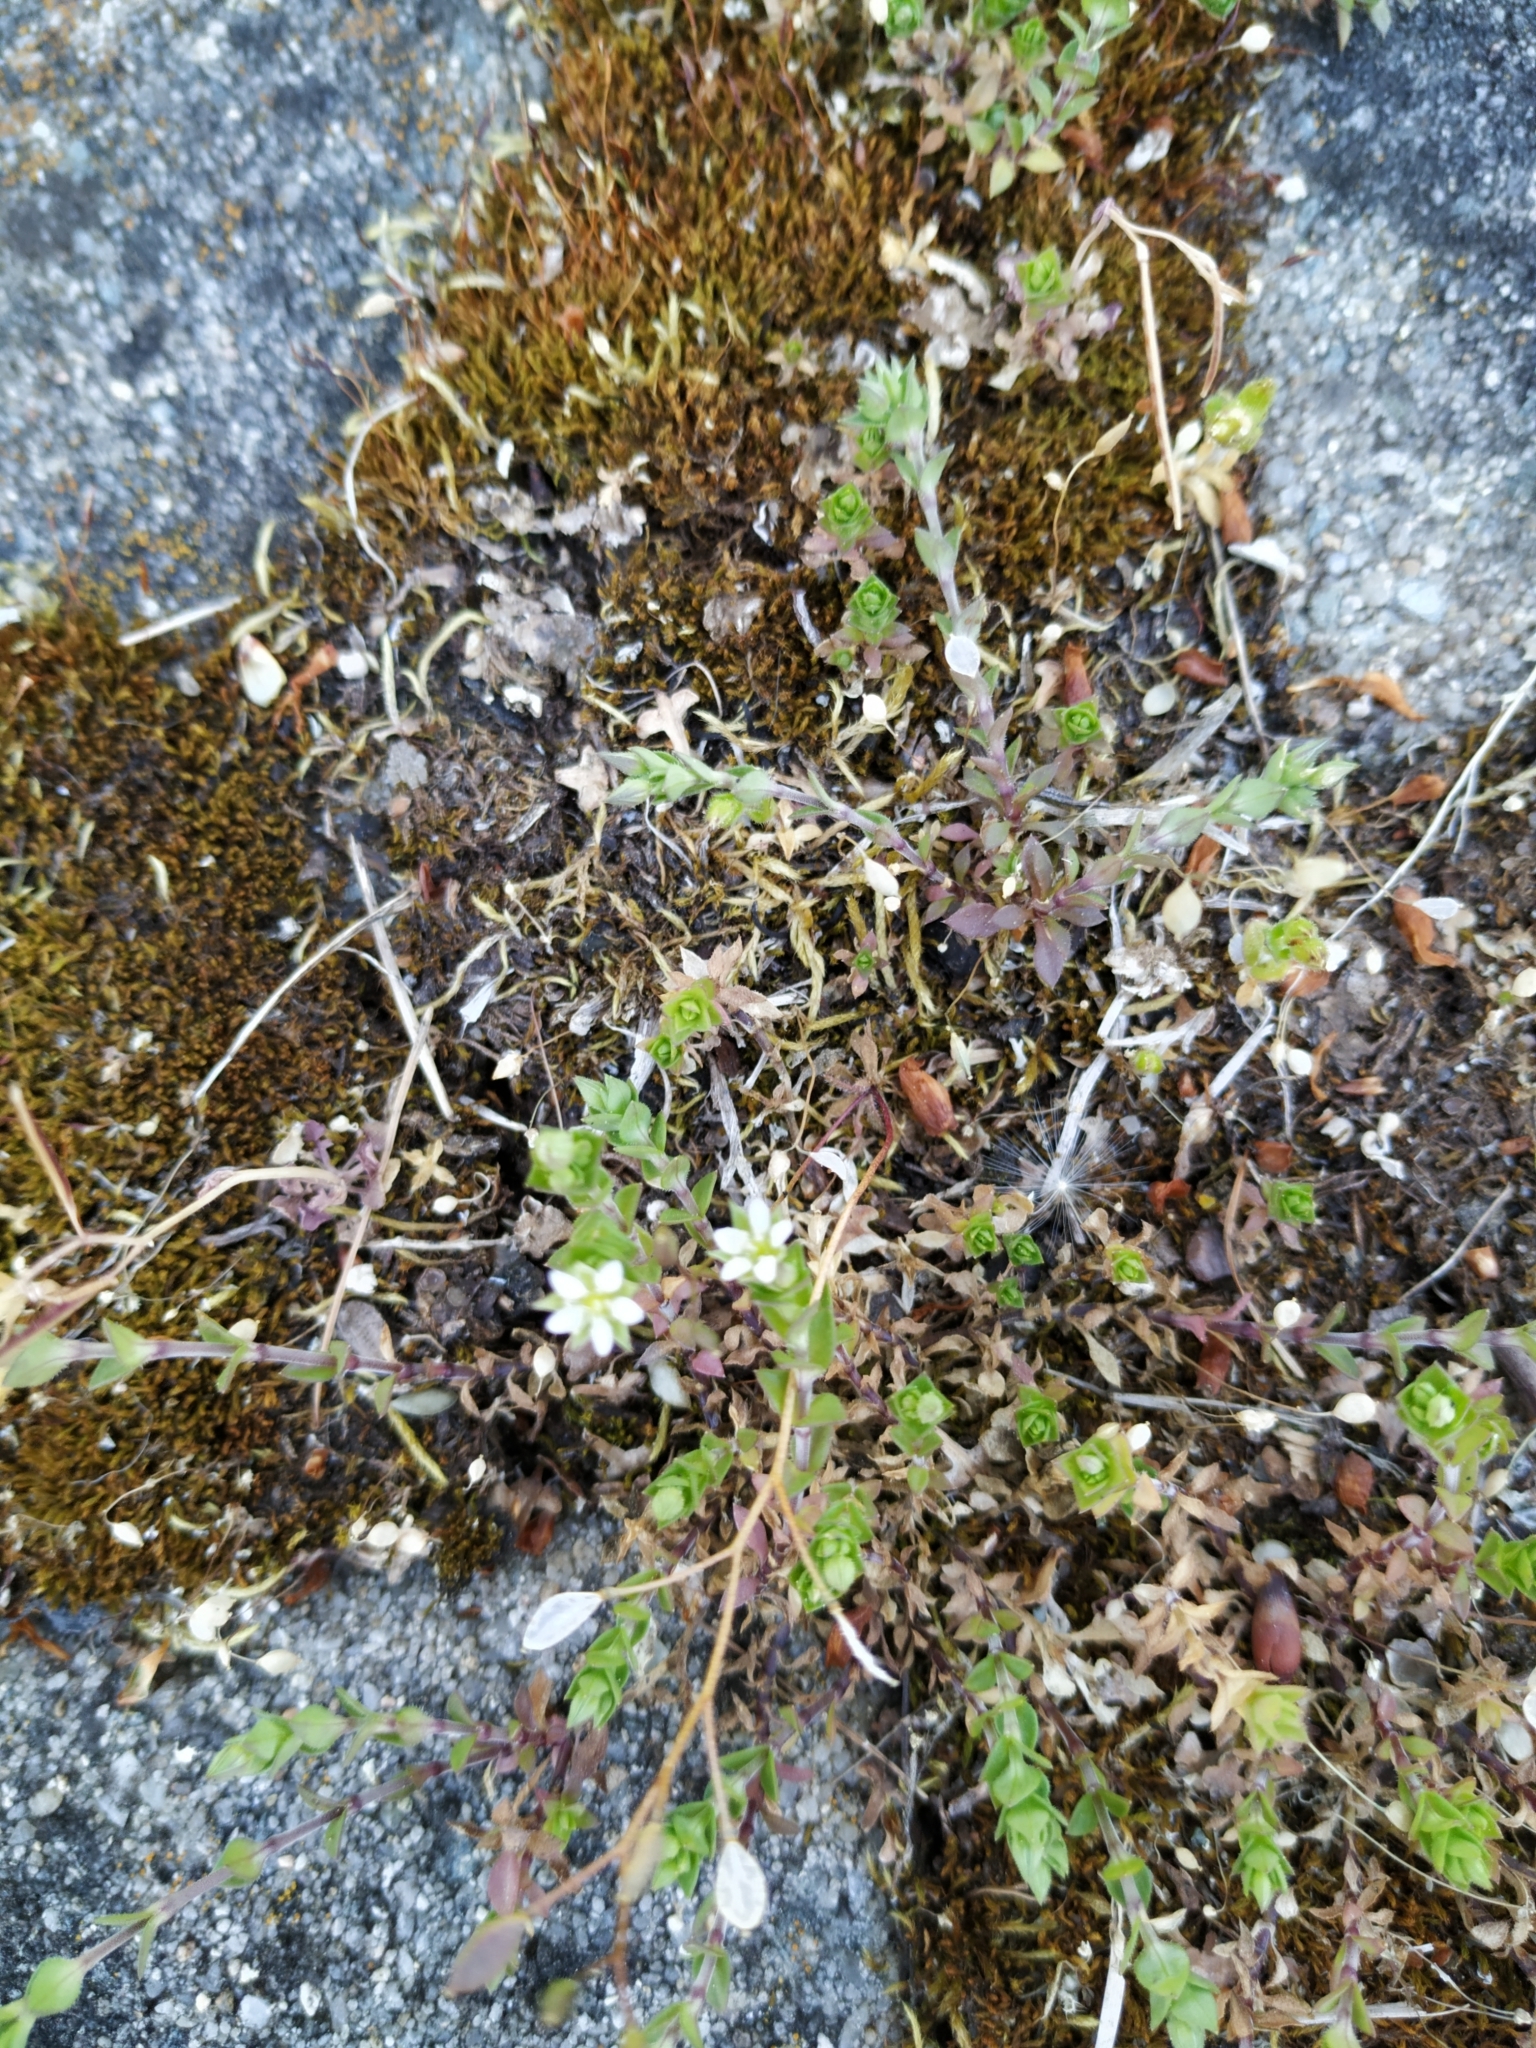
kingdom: Plantae
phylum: Tracheophyta
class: Magnoliopsida
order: Caryophyllales
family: Caryophyllaceae
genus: Arenaria
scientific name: Arenaria serpyllifolia
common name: Thyme-leaved sandwort
